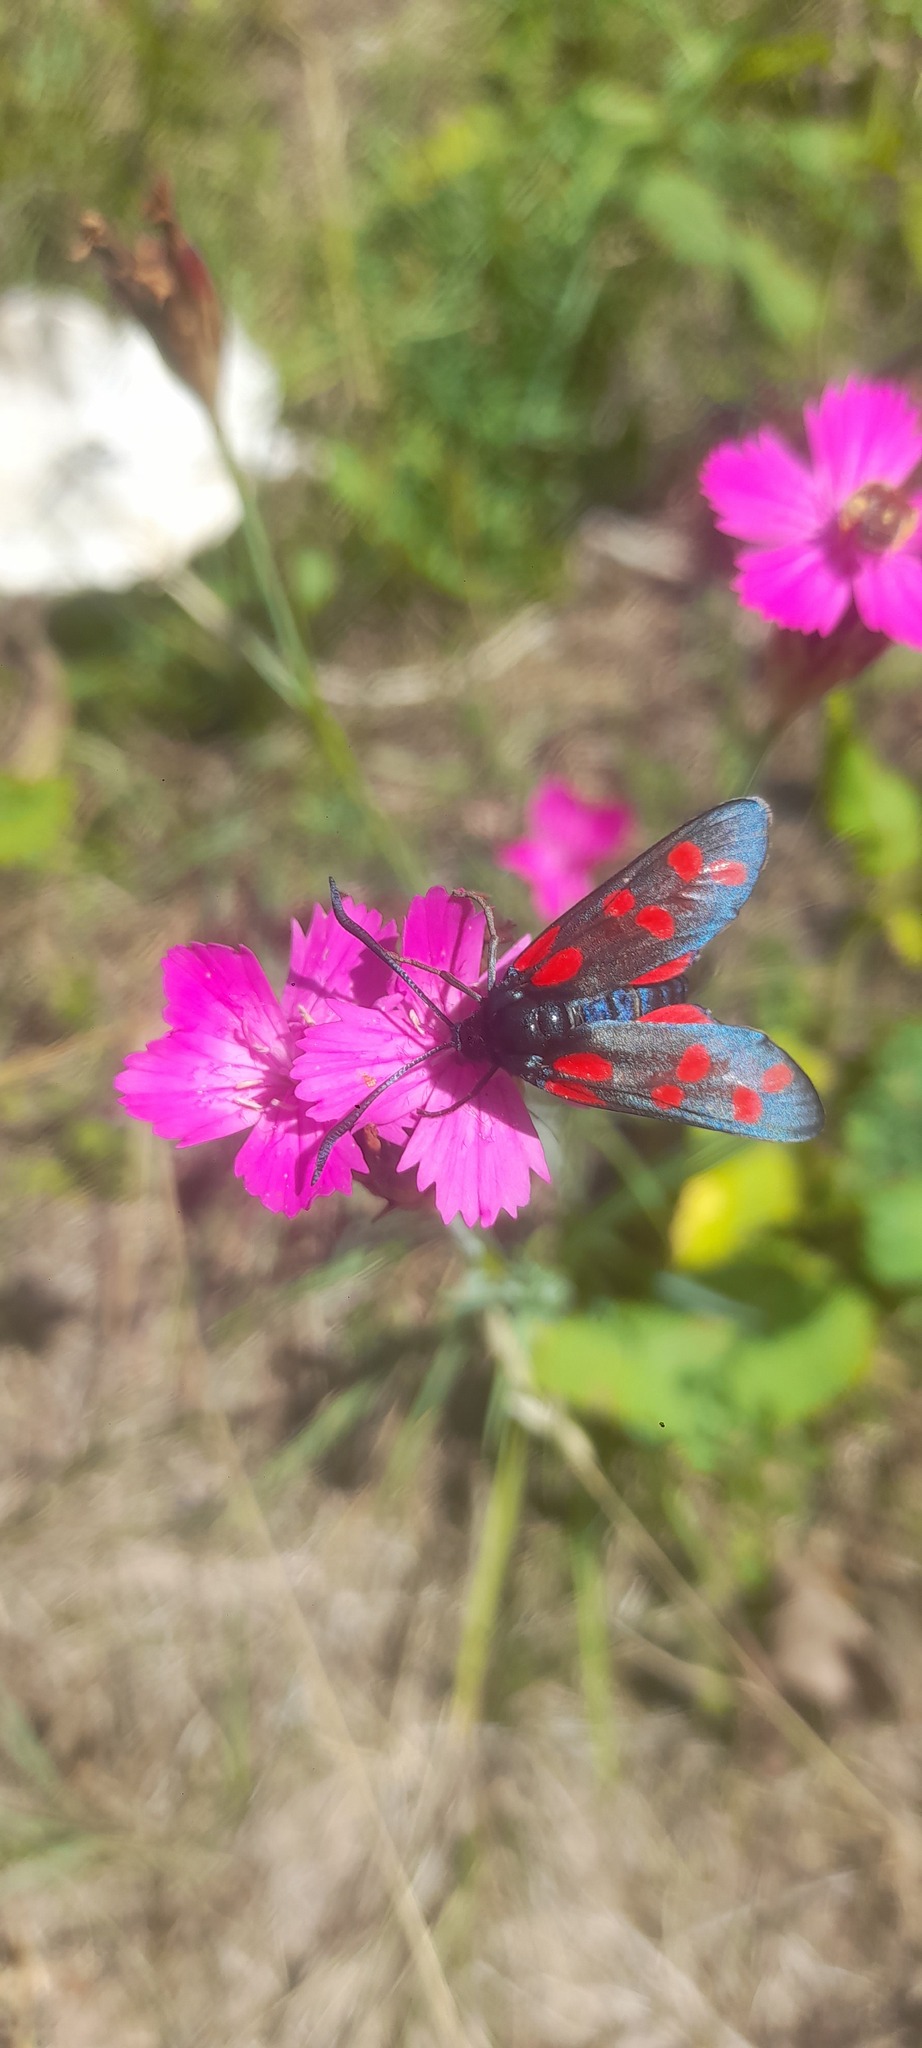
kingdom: Animalia
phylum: Arthropoda
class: Insecta
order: Lepidoptera
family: Zygaenidae
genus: Zygaena
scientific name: Zygaena filipendulae
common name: Six-spot burnet
